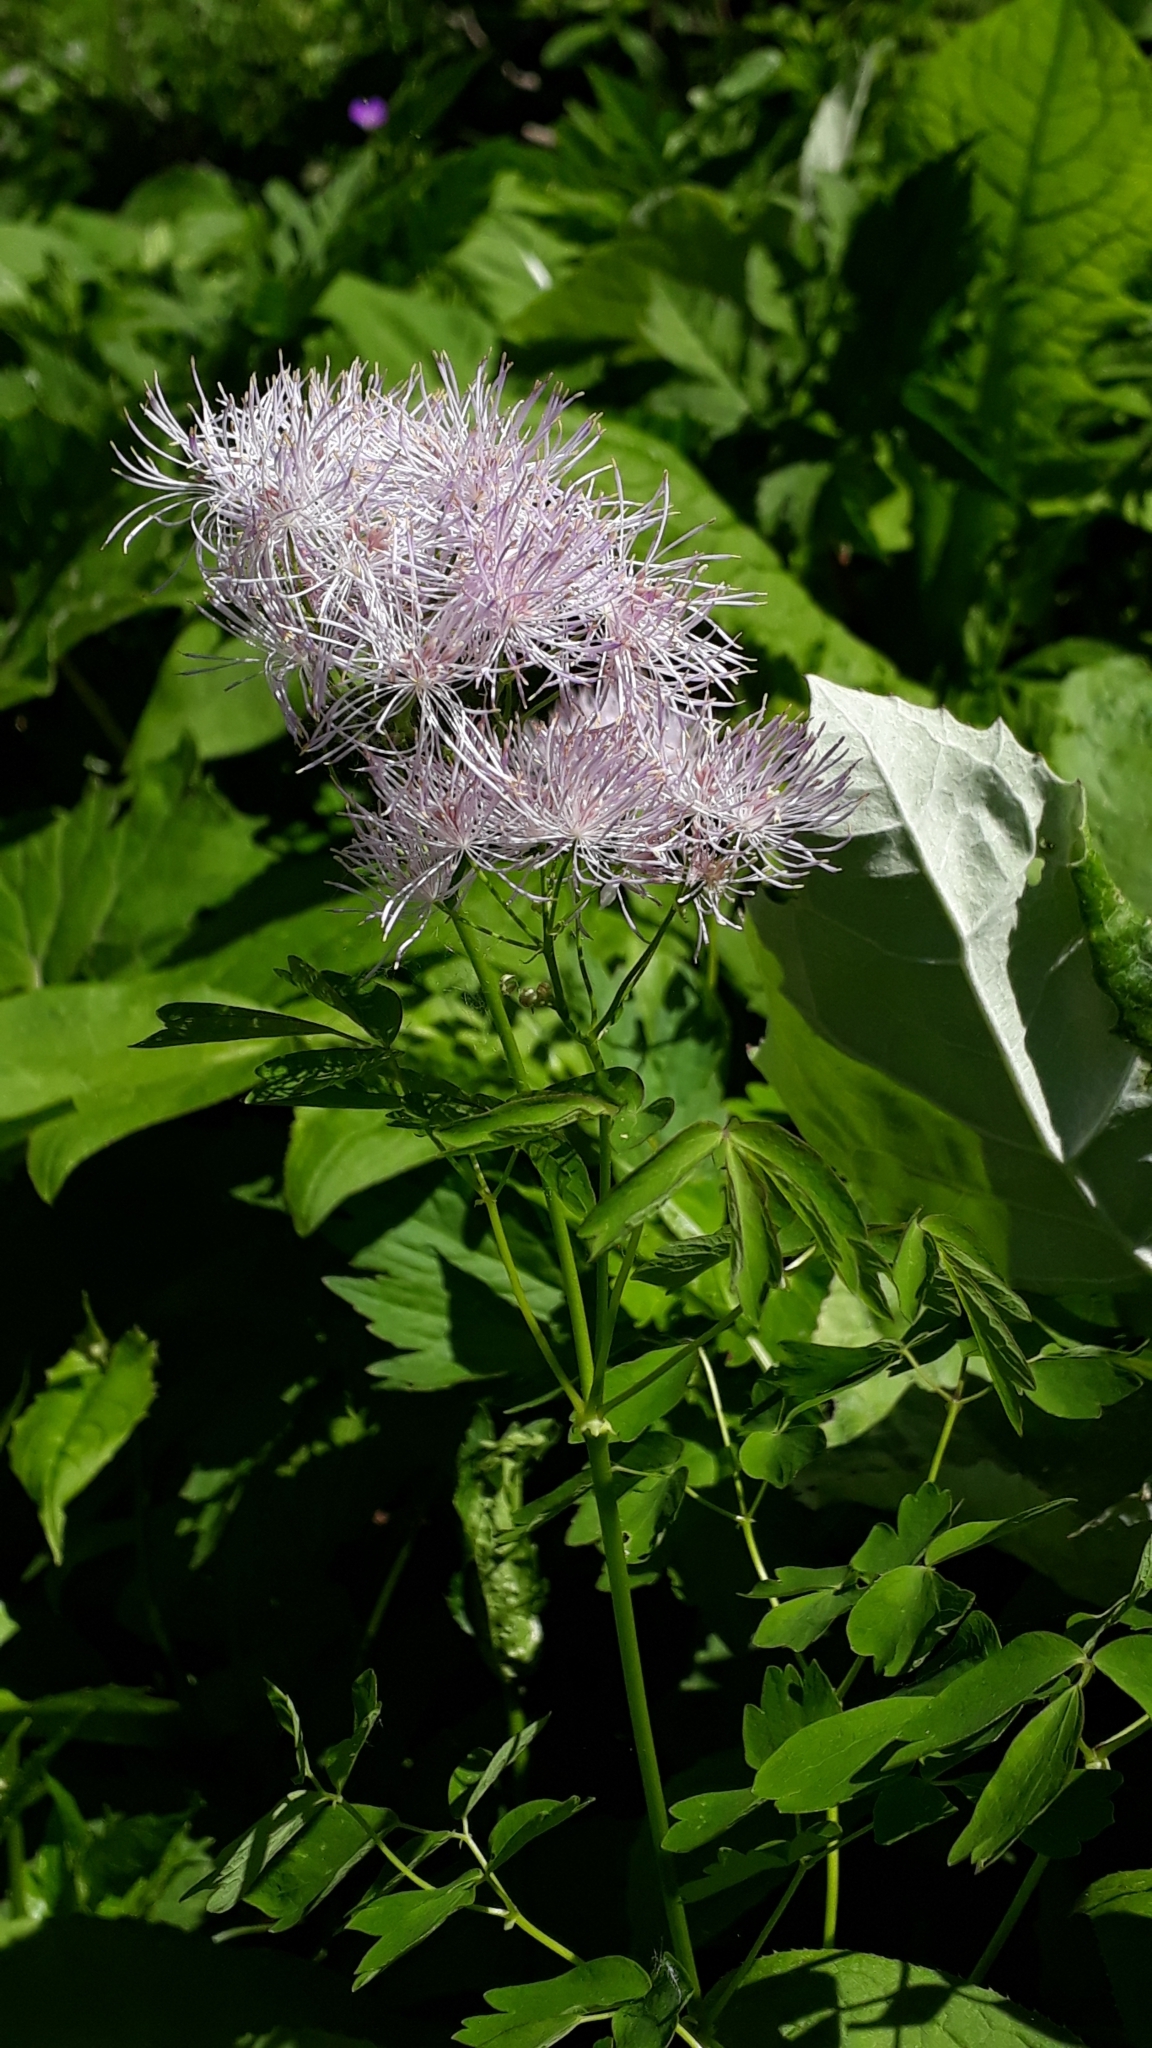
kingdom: Plantae
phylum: Tracheophyta
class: Magnoliopsida
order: Ranunculales
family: Ranunculaceae
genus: Thalictrum
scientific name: Thalictrum aquilegiifolium
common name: French meadow-rue
